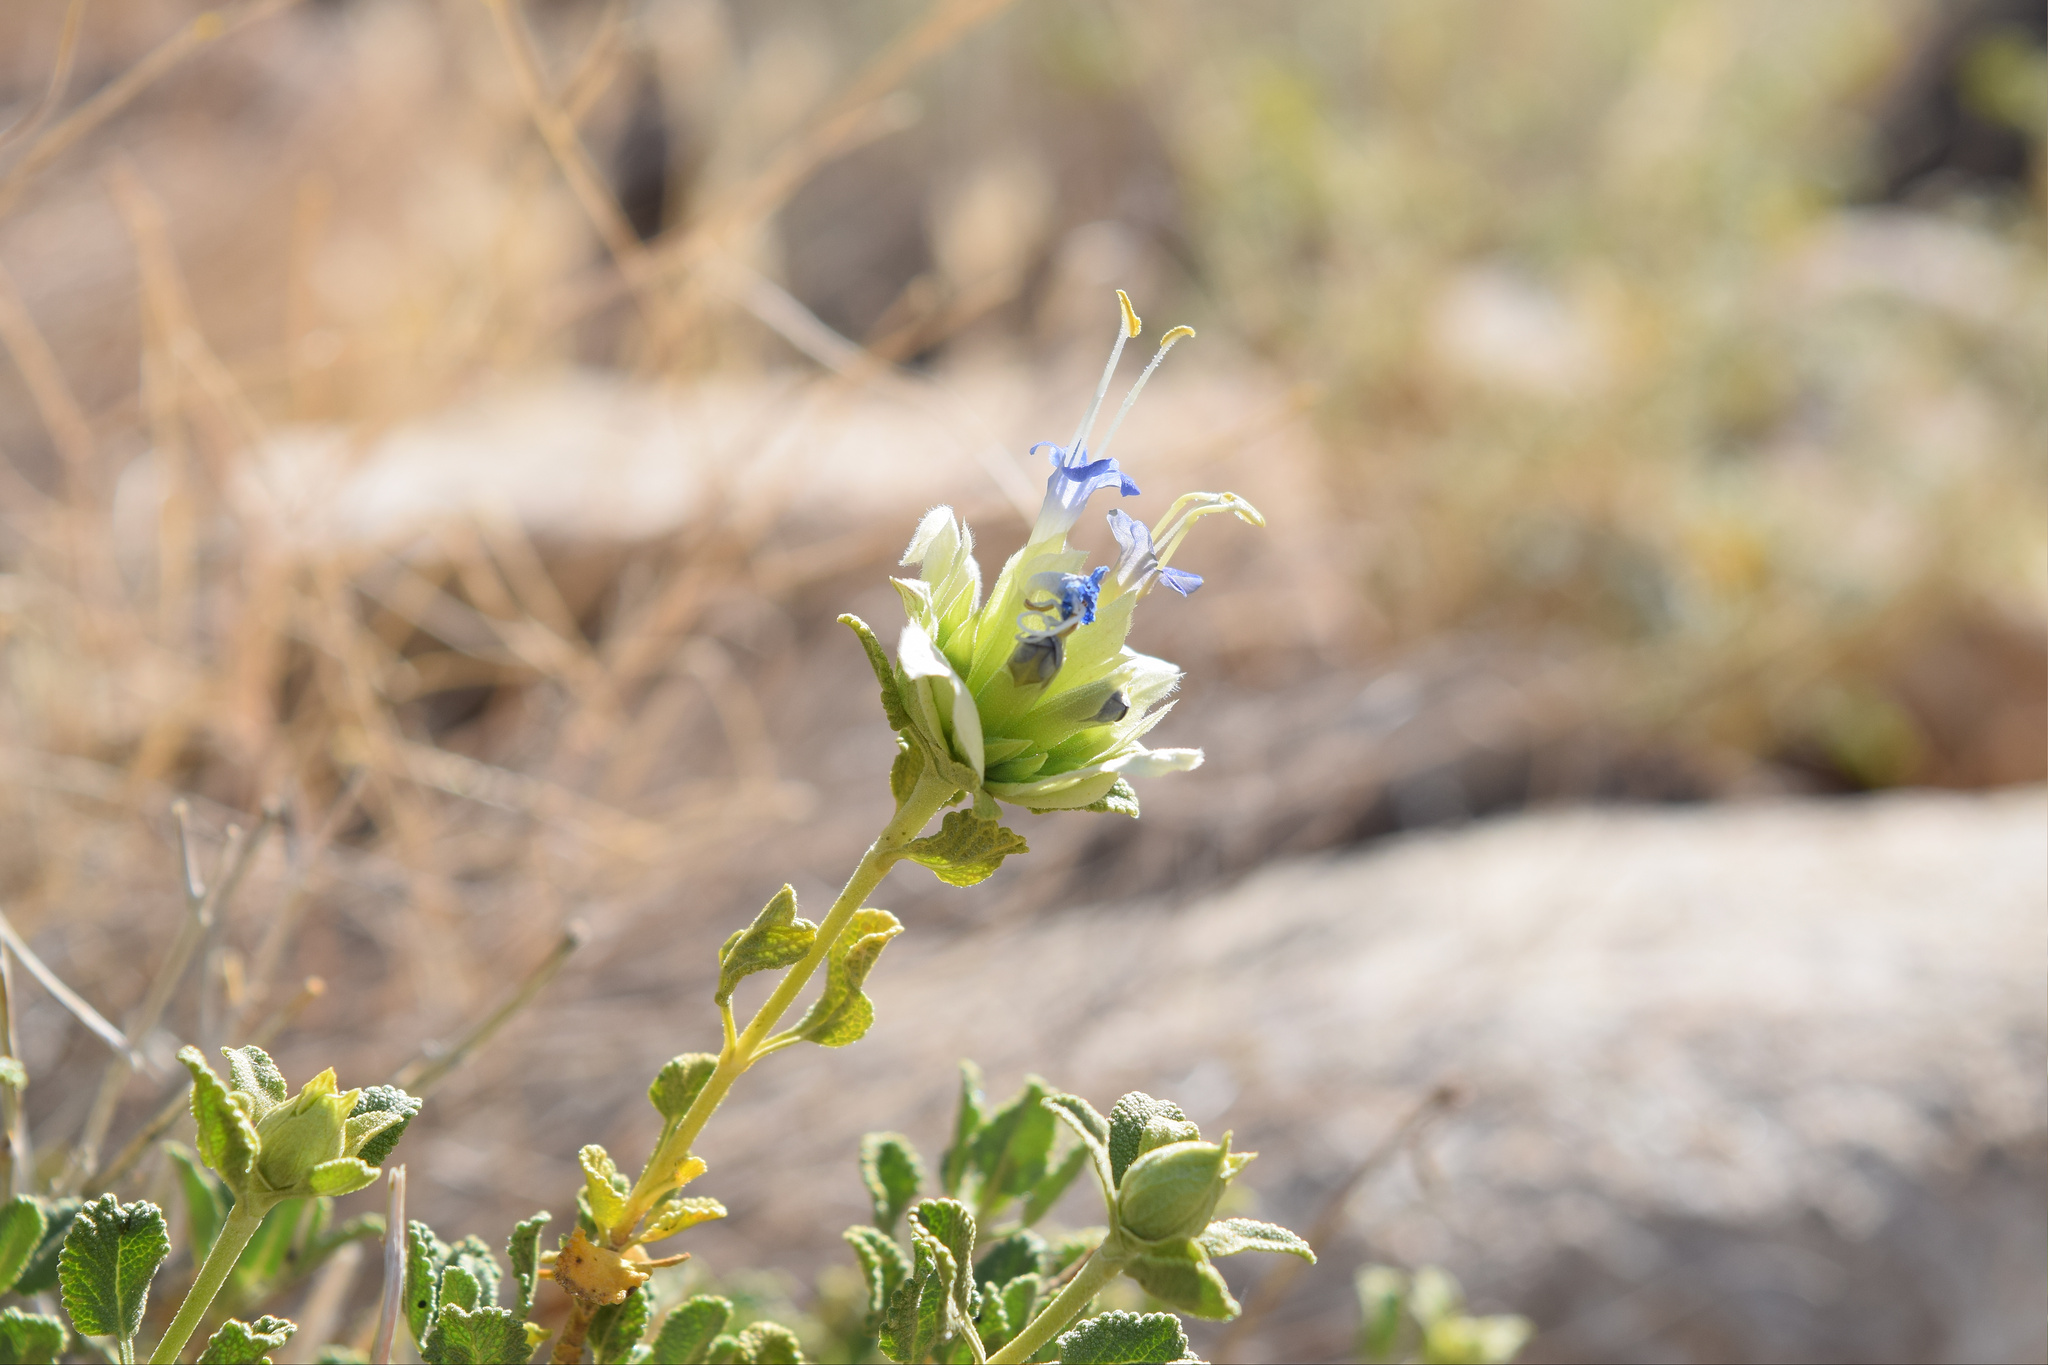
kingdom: Plantae
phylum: Tracheophyta
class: Magnoliopsida
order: Lamiales
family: Lamiaceae
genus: Salvia
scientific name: Salvia mohavensis
